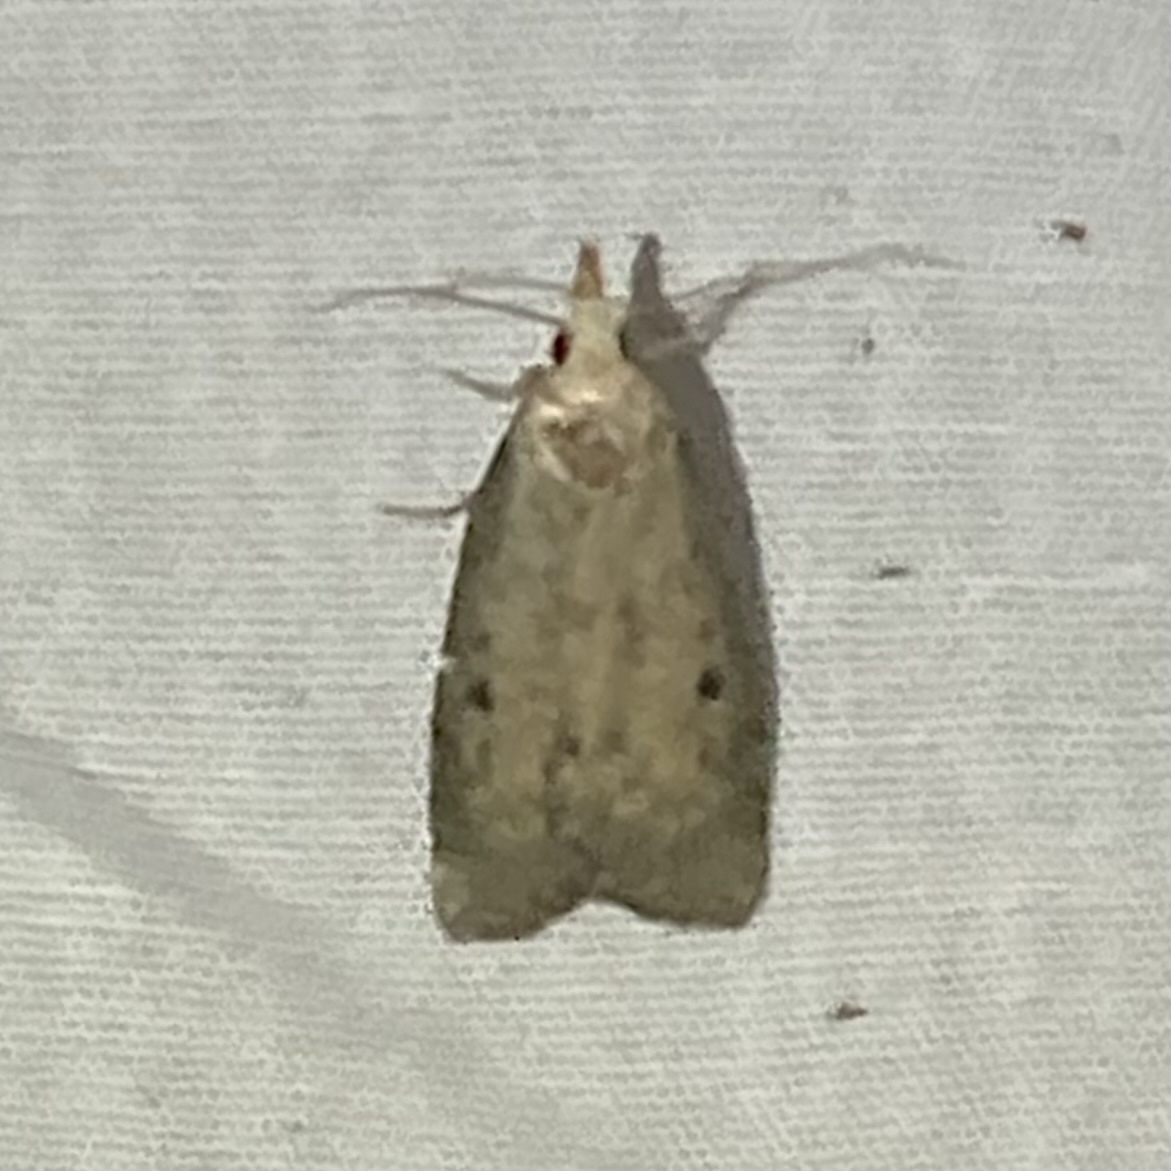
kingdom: Animalia
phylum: Arthropoda
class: Insecta
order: Lepidoptera
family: Pyralidae
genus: Aphomia
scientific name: Aphomia sociella
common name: Bee moth
